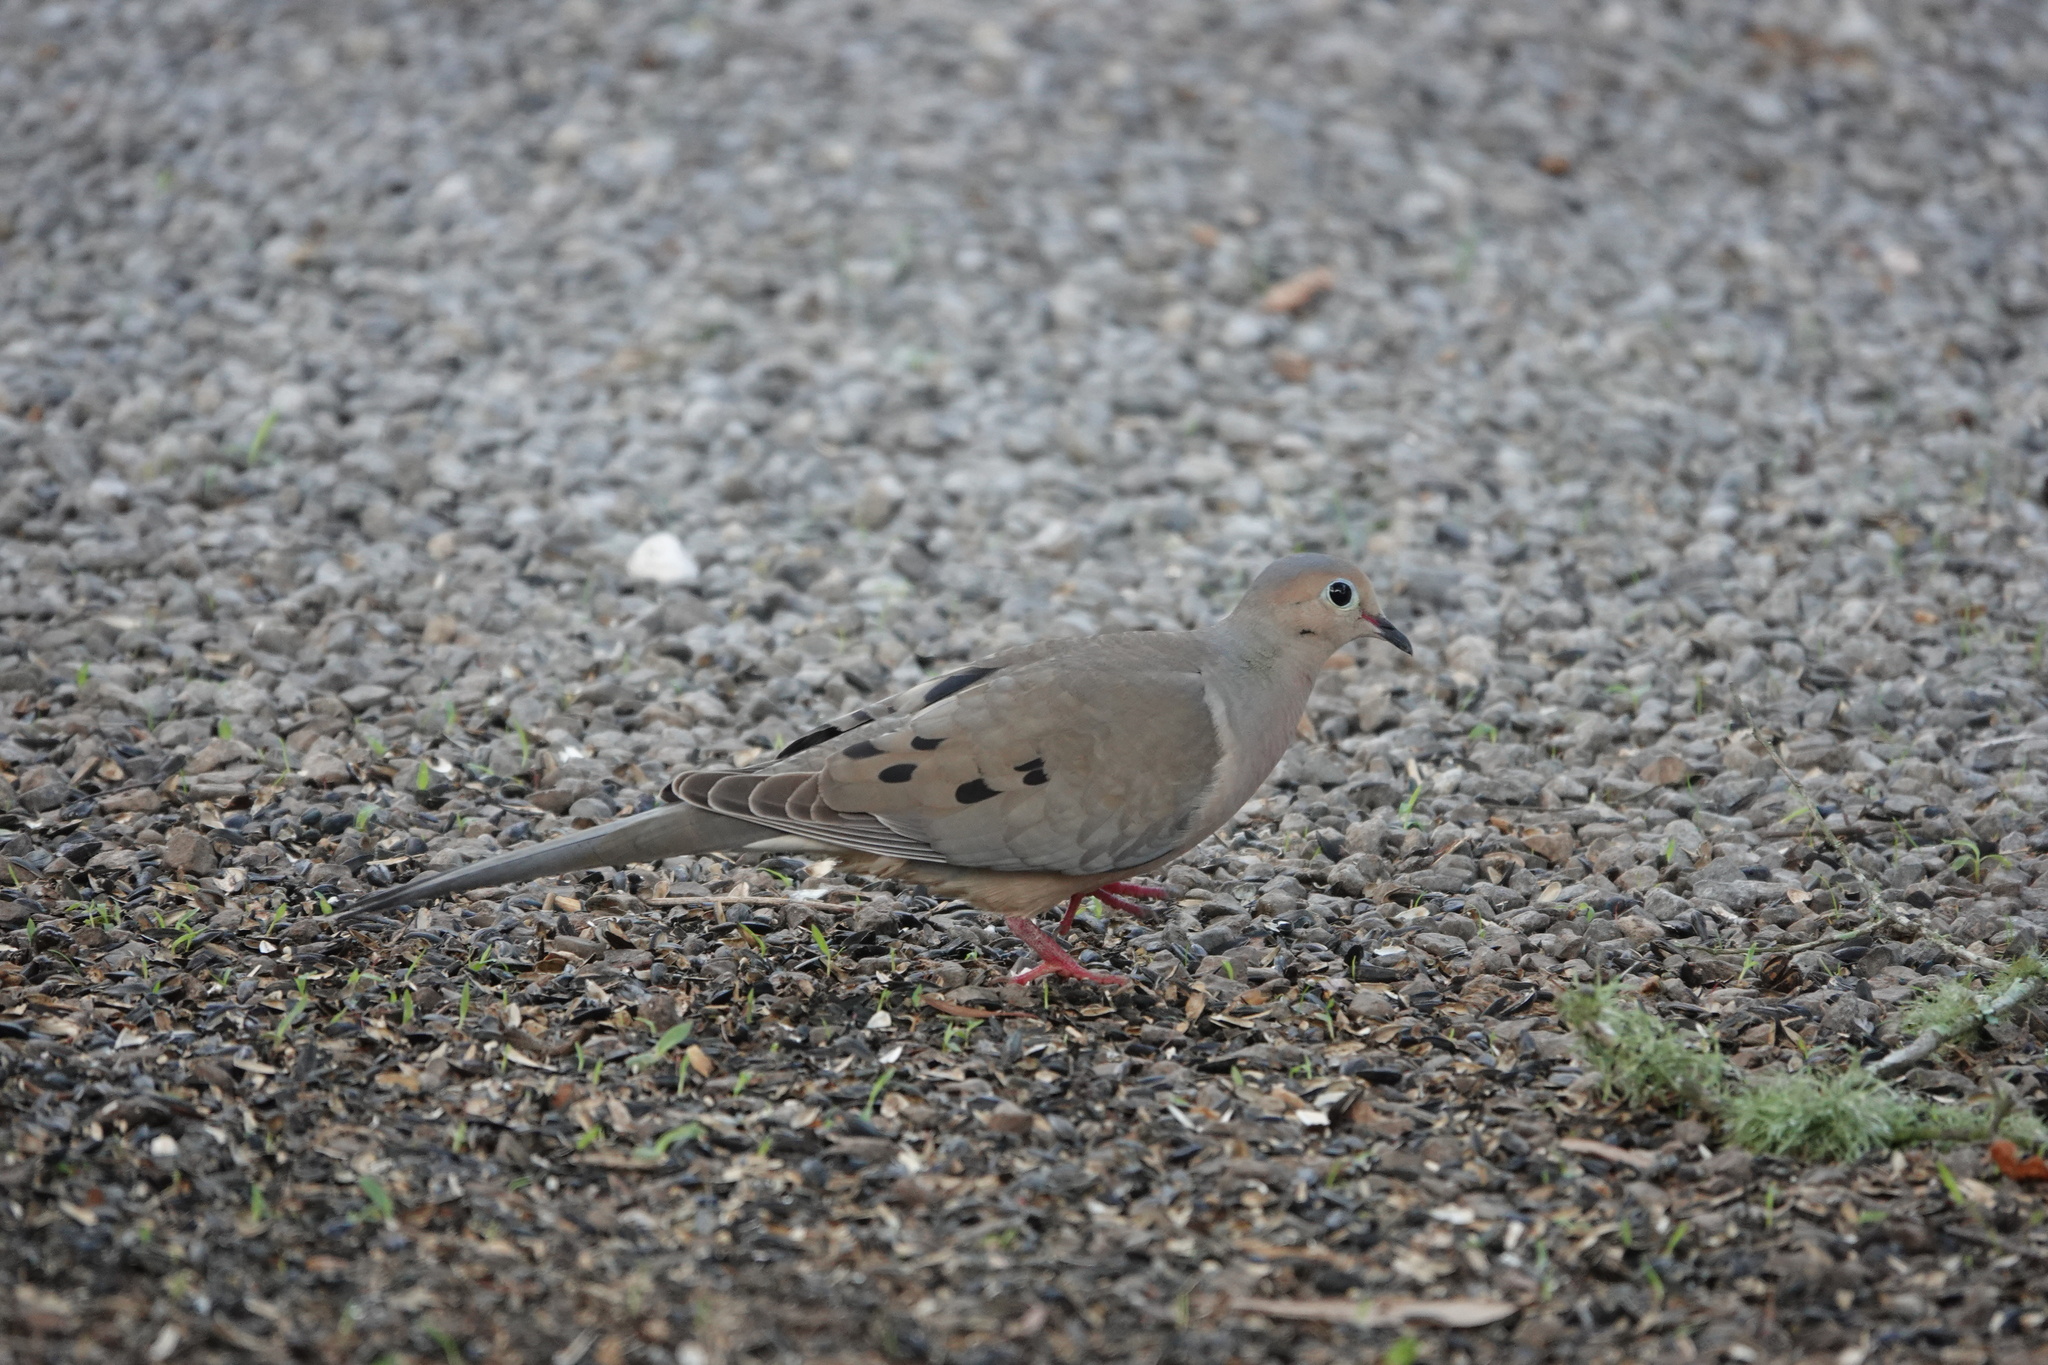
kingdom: Animalia
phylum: Chordata
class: Aves
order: Columbiformes
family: Columbidae
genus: Zenaida
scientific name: Zenaida macroura
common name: Mourning dove
